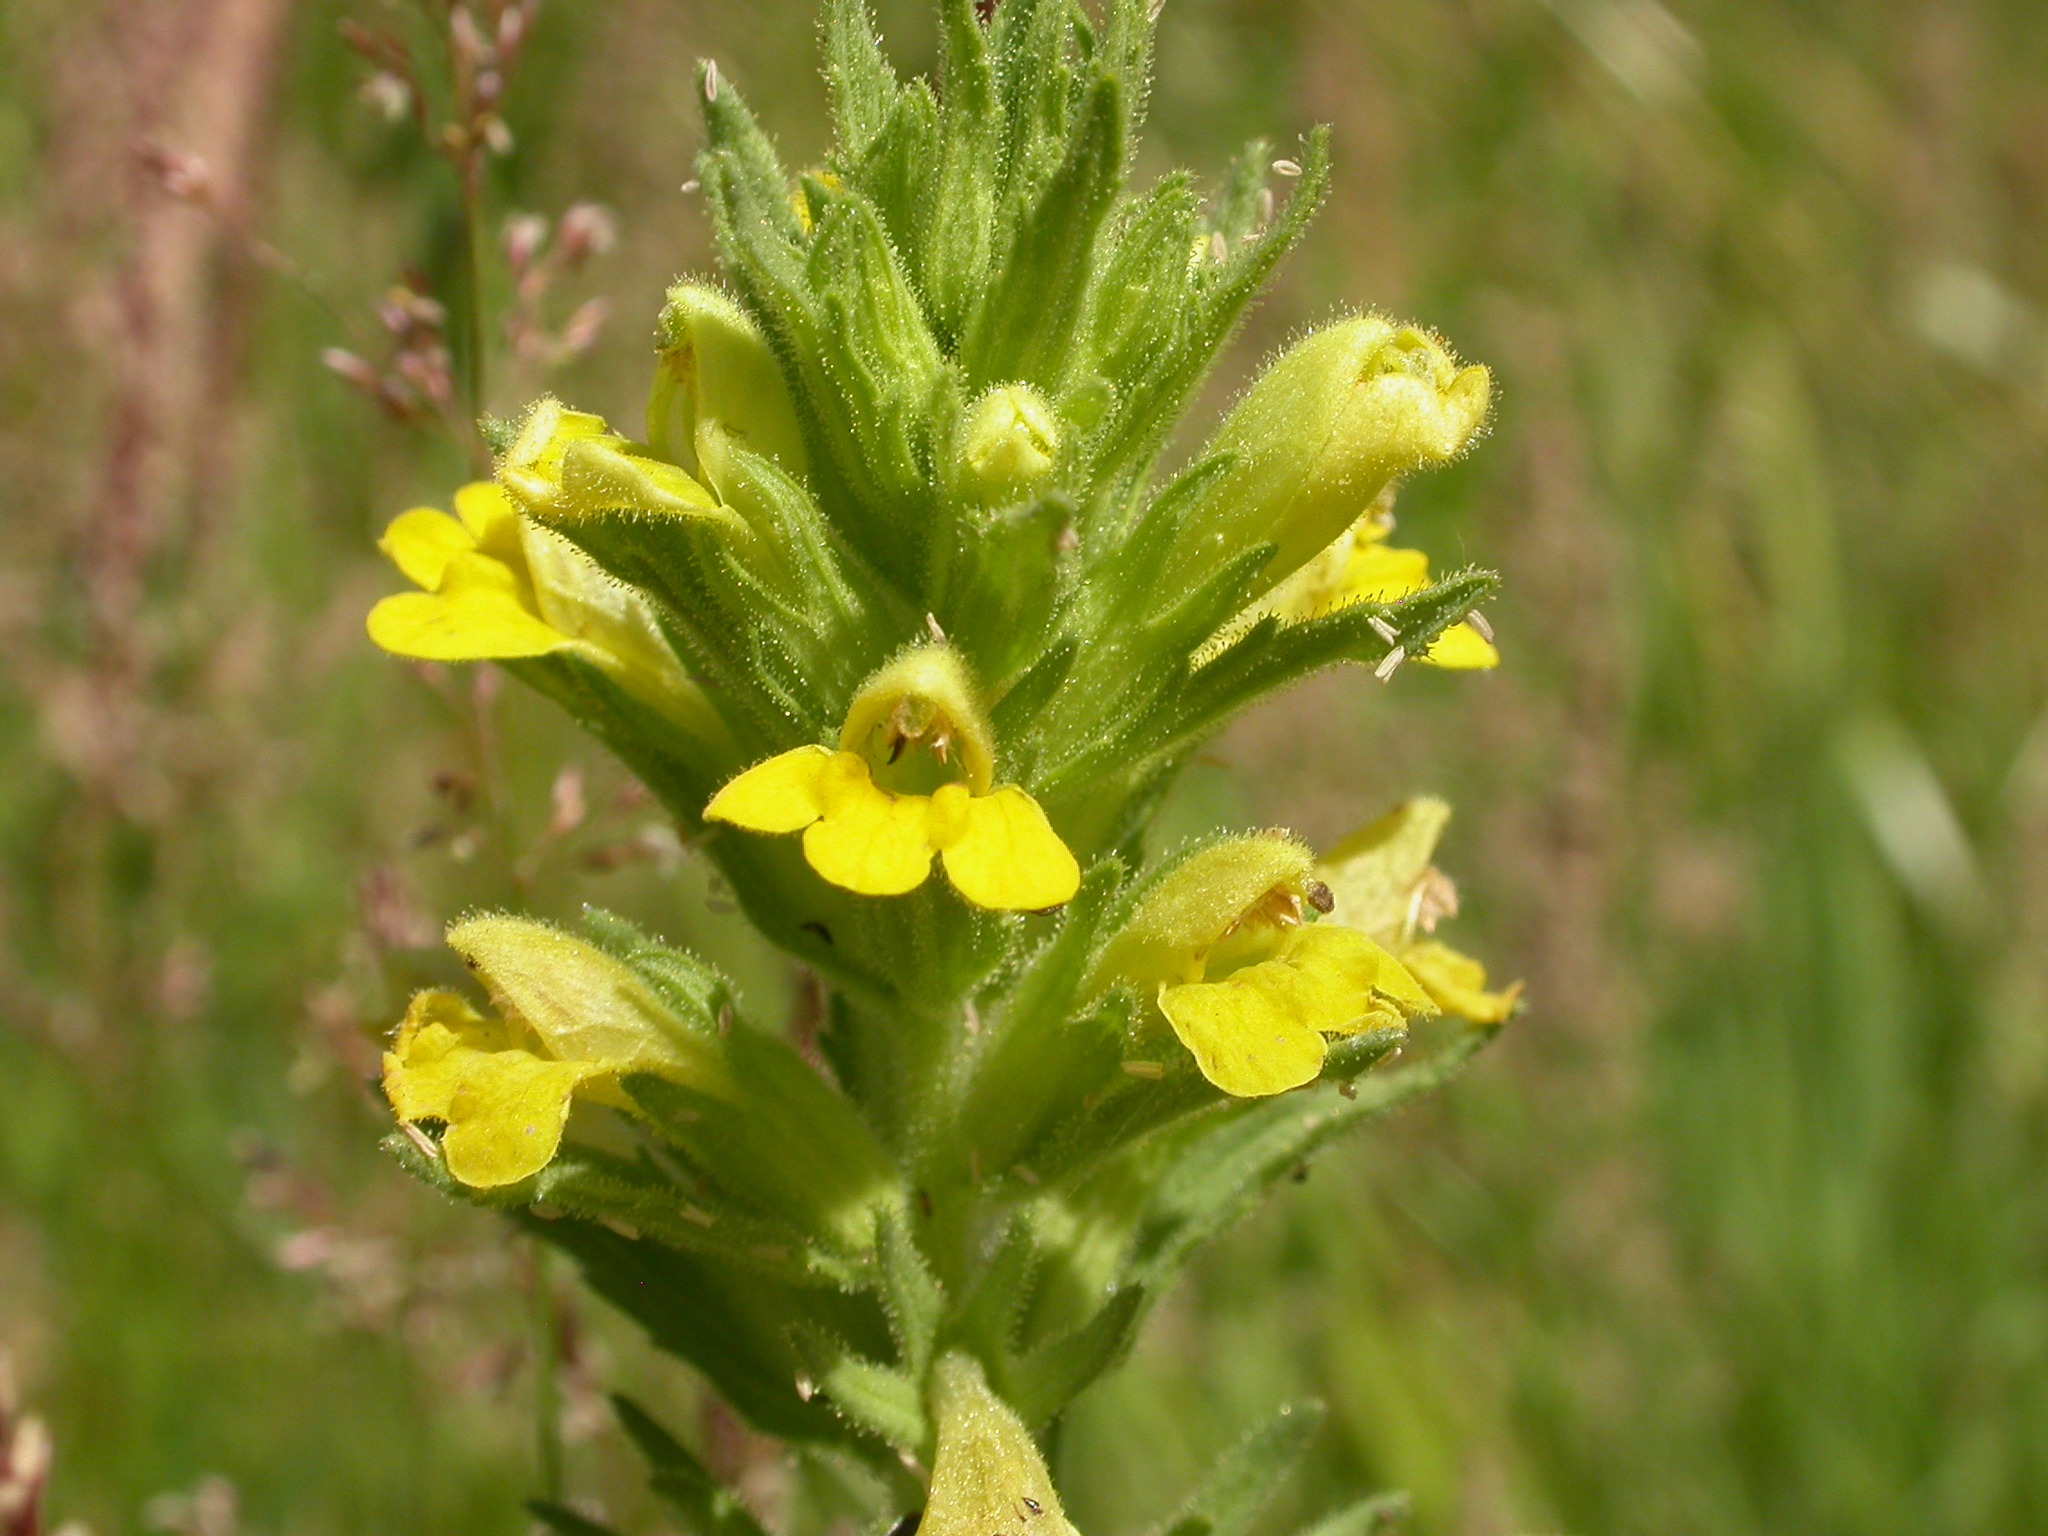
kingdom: Plantae
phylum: Tracheophyta
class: Magnoliopsida
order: Lamiales
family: Orobanchaceae
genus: Bellardia
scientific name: Bellardia viscosa
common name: Sticky parentucellia
